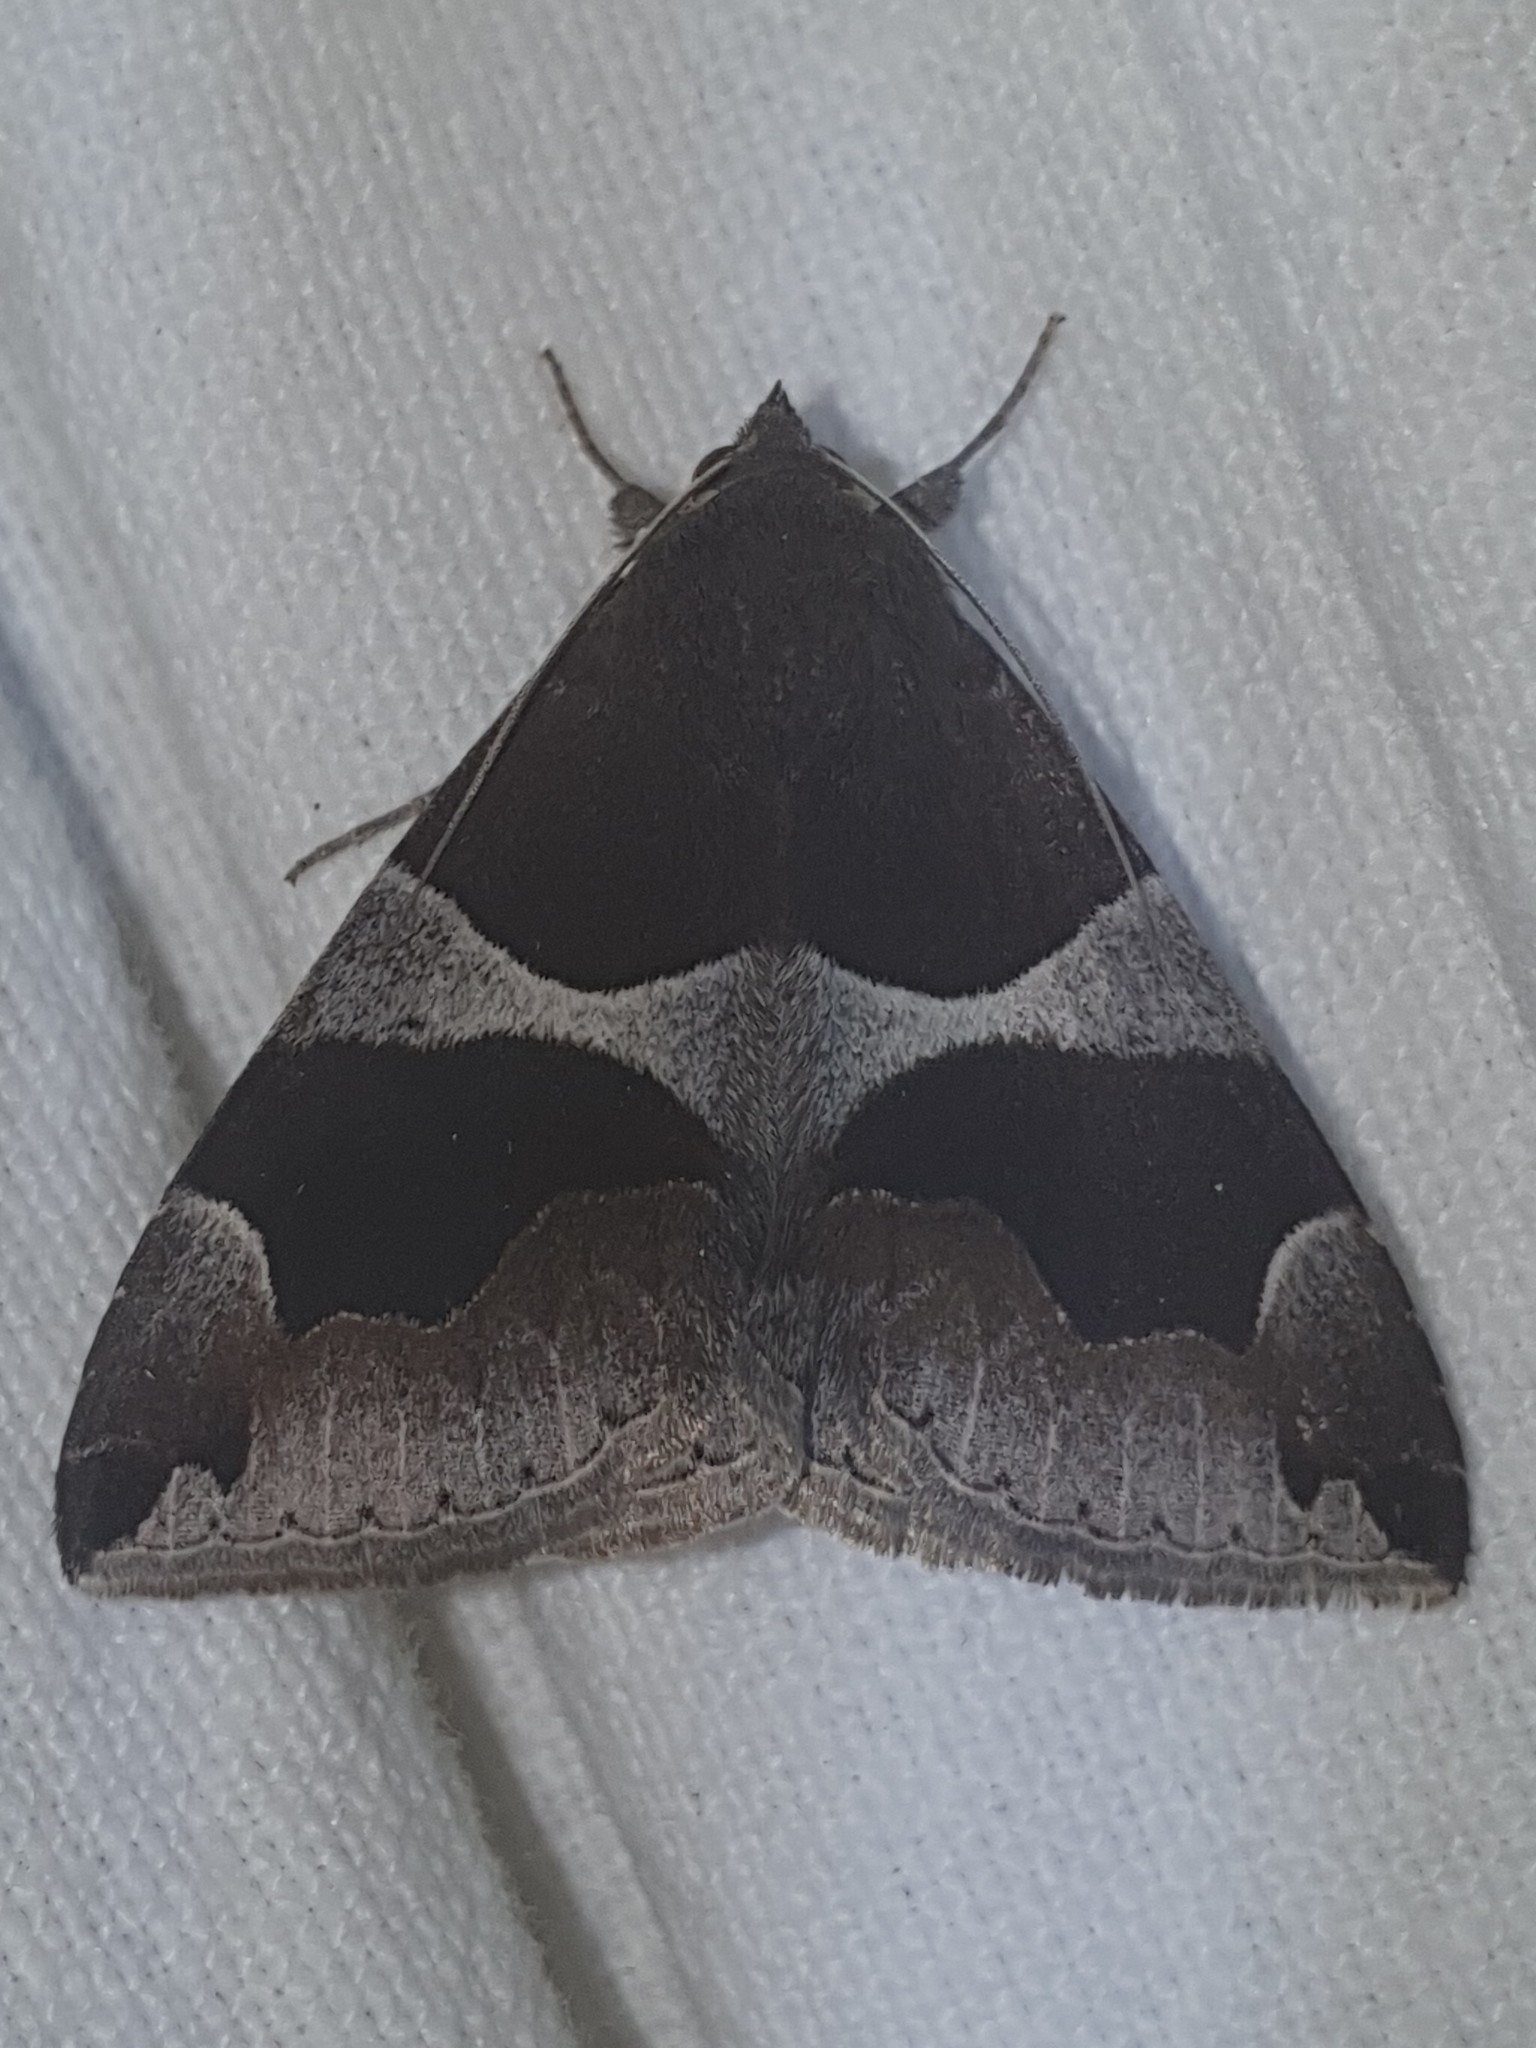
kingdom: Animalia
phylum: Arthropoda
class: Insecta
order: Lepidoptera
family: Erebidae
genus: Dysgonia
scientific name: Dysgonia algira
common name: Passenger
